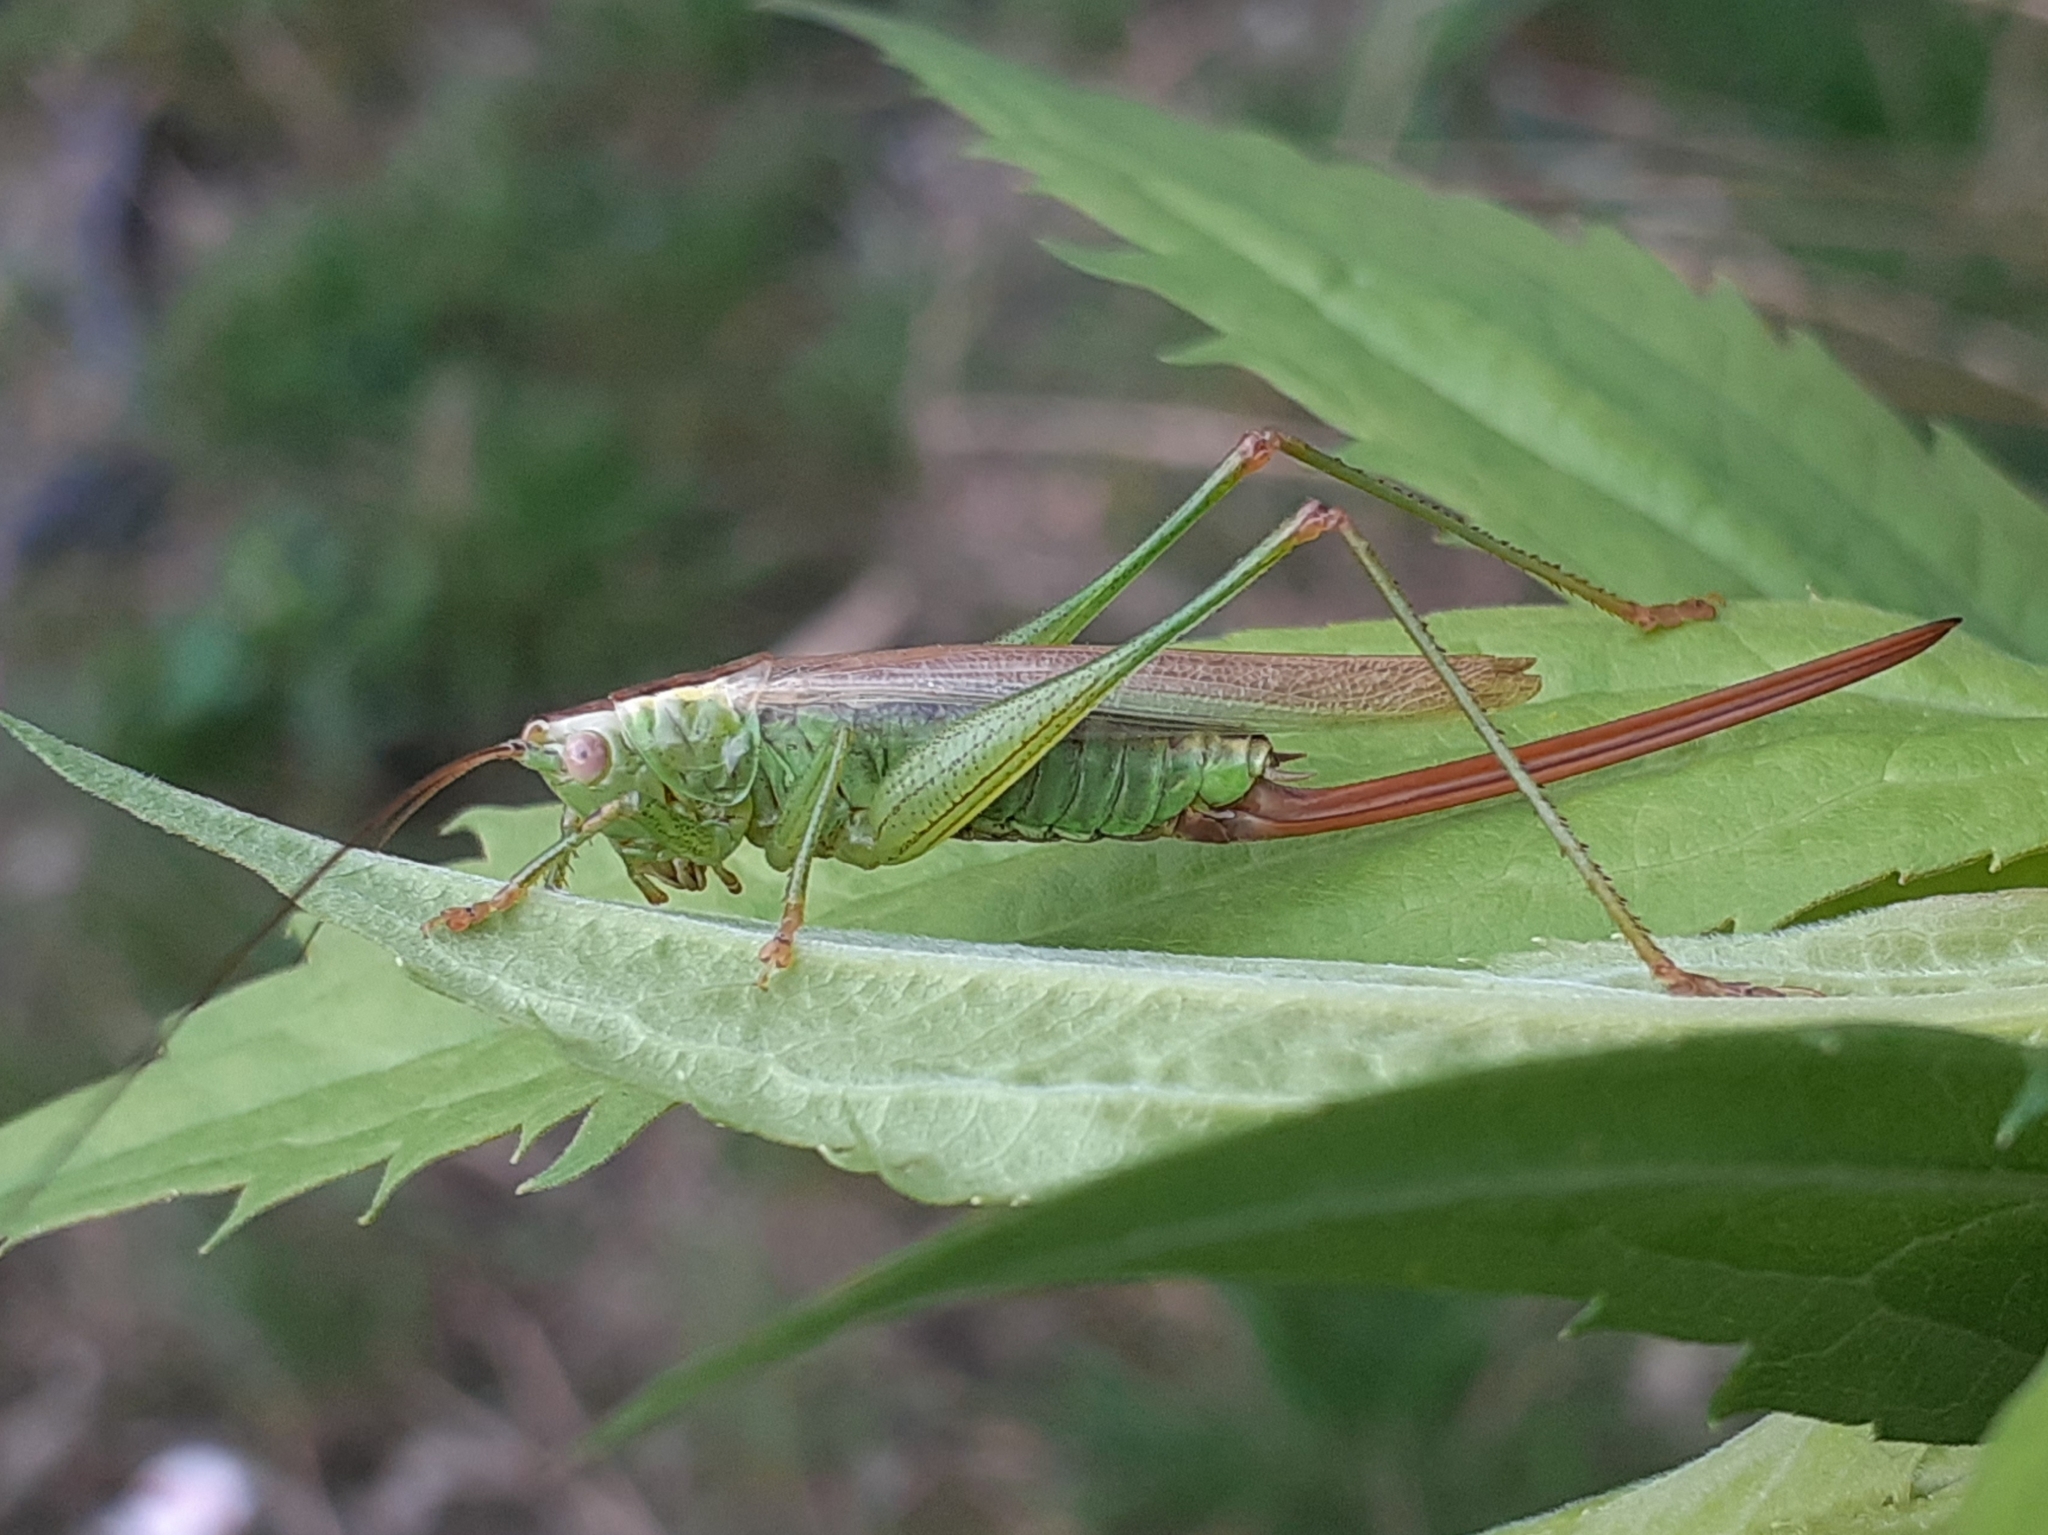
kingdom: Animalia
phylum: Arthropoda
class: Insecta
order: Orthoptera
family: Tettigoniidae
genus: Conocephalus
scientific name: Conocephalus fuscus
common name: Long-winged conehead
